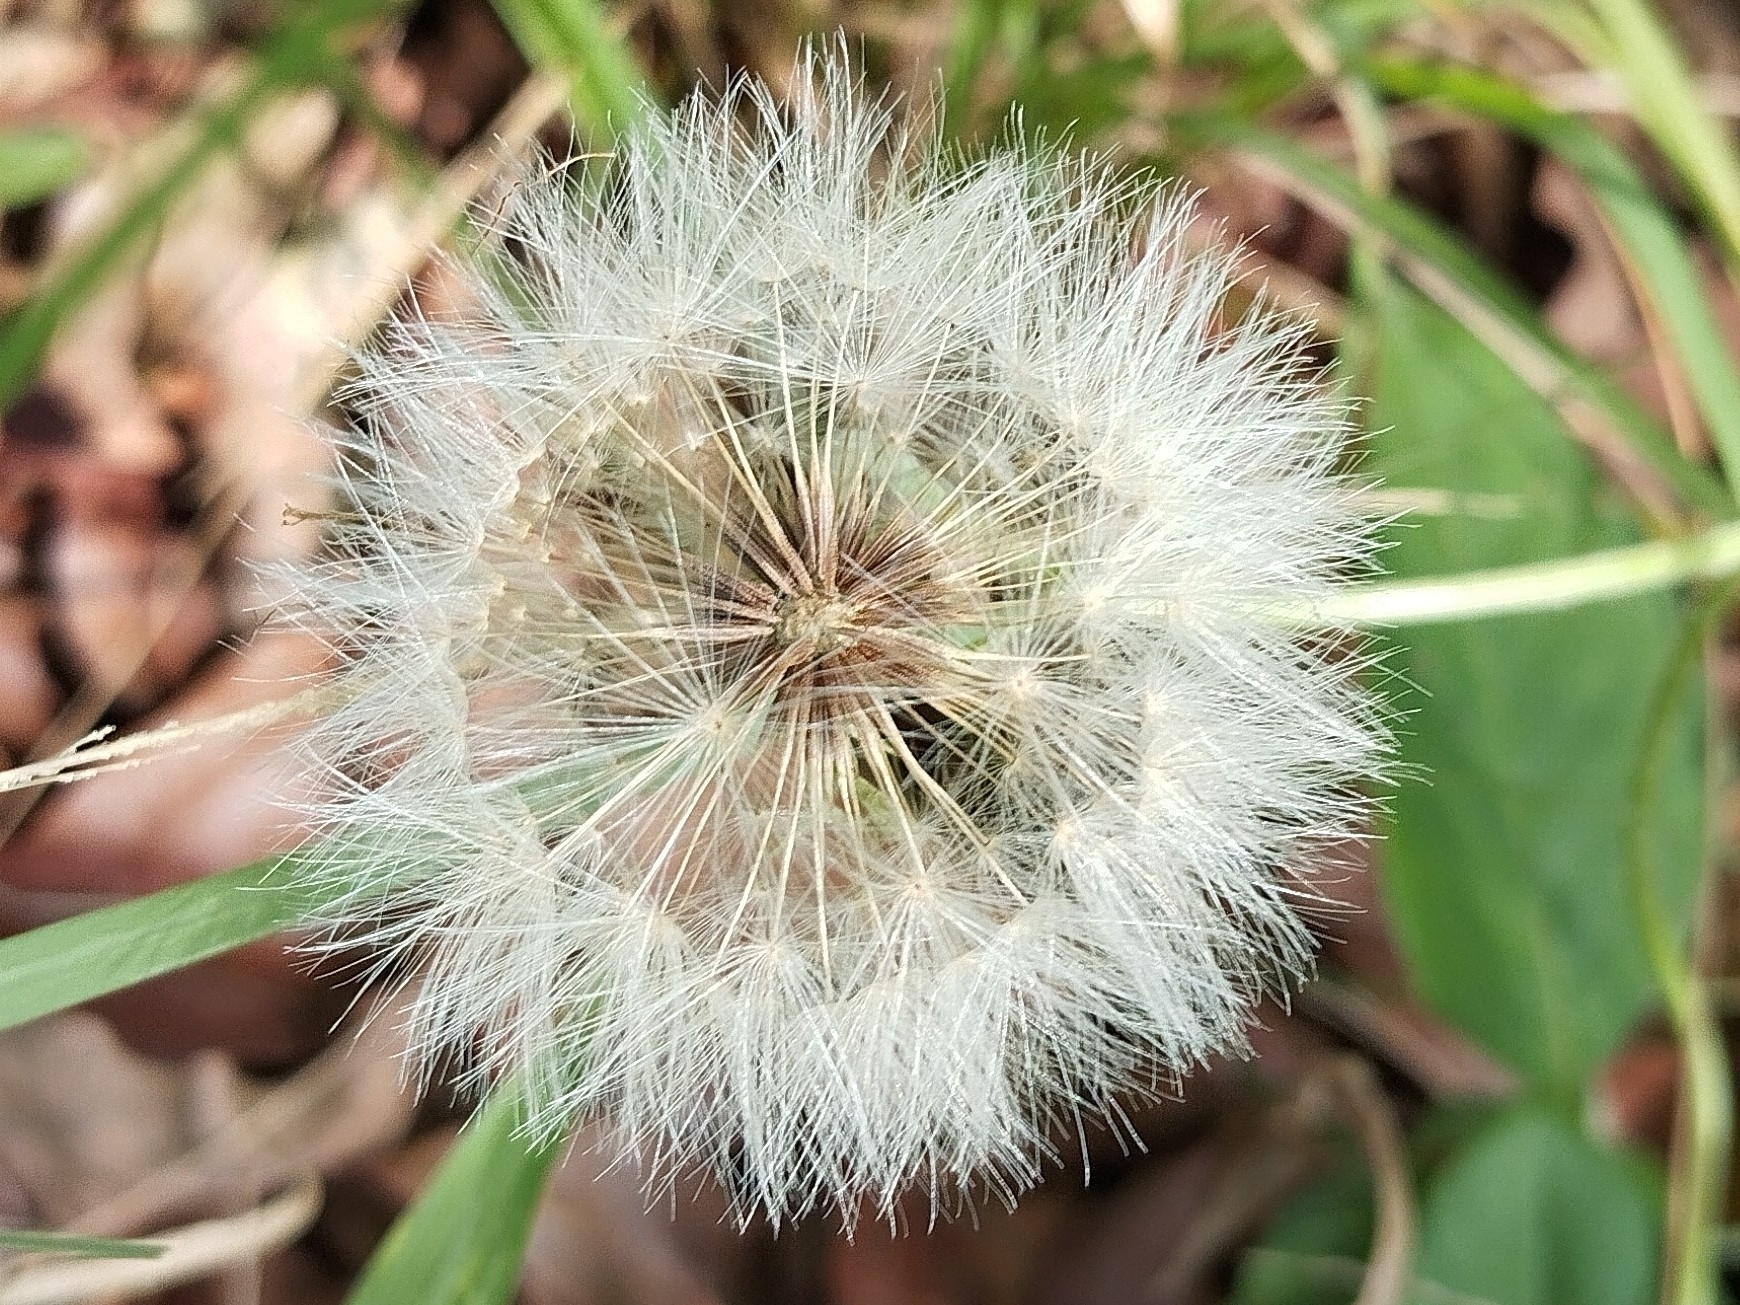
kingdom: Plantae
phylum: Tracheophyta
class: Magnoliopsida
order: Asterales
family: Asteraceae
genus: Chaptalia
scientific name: Chaptalia nutans
